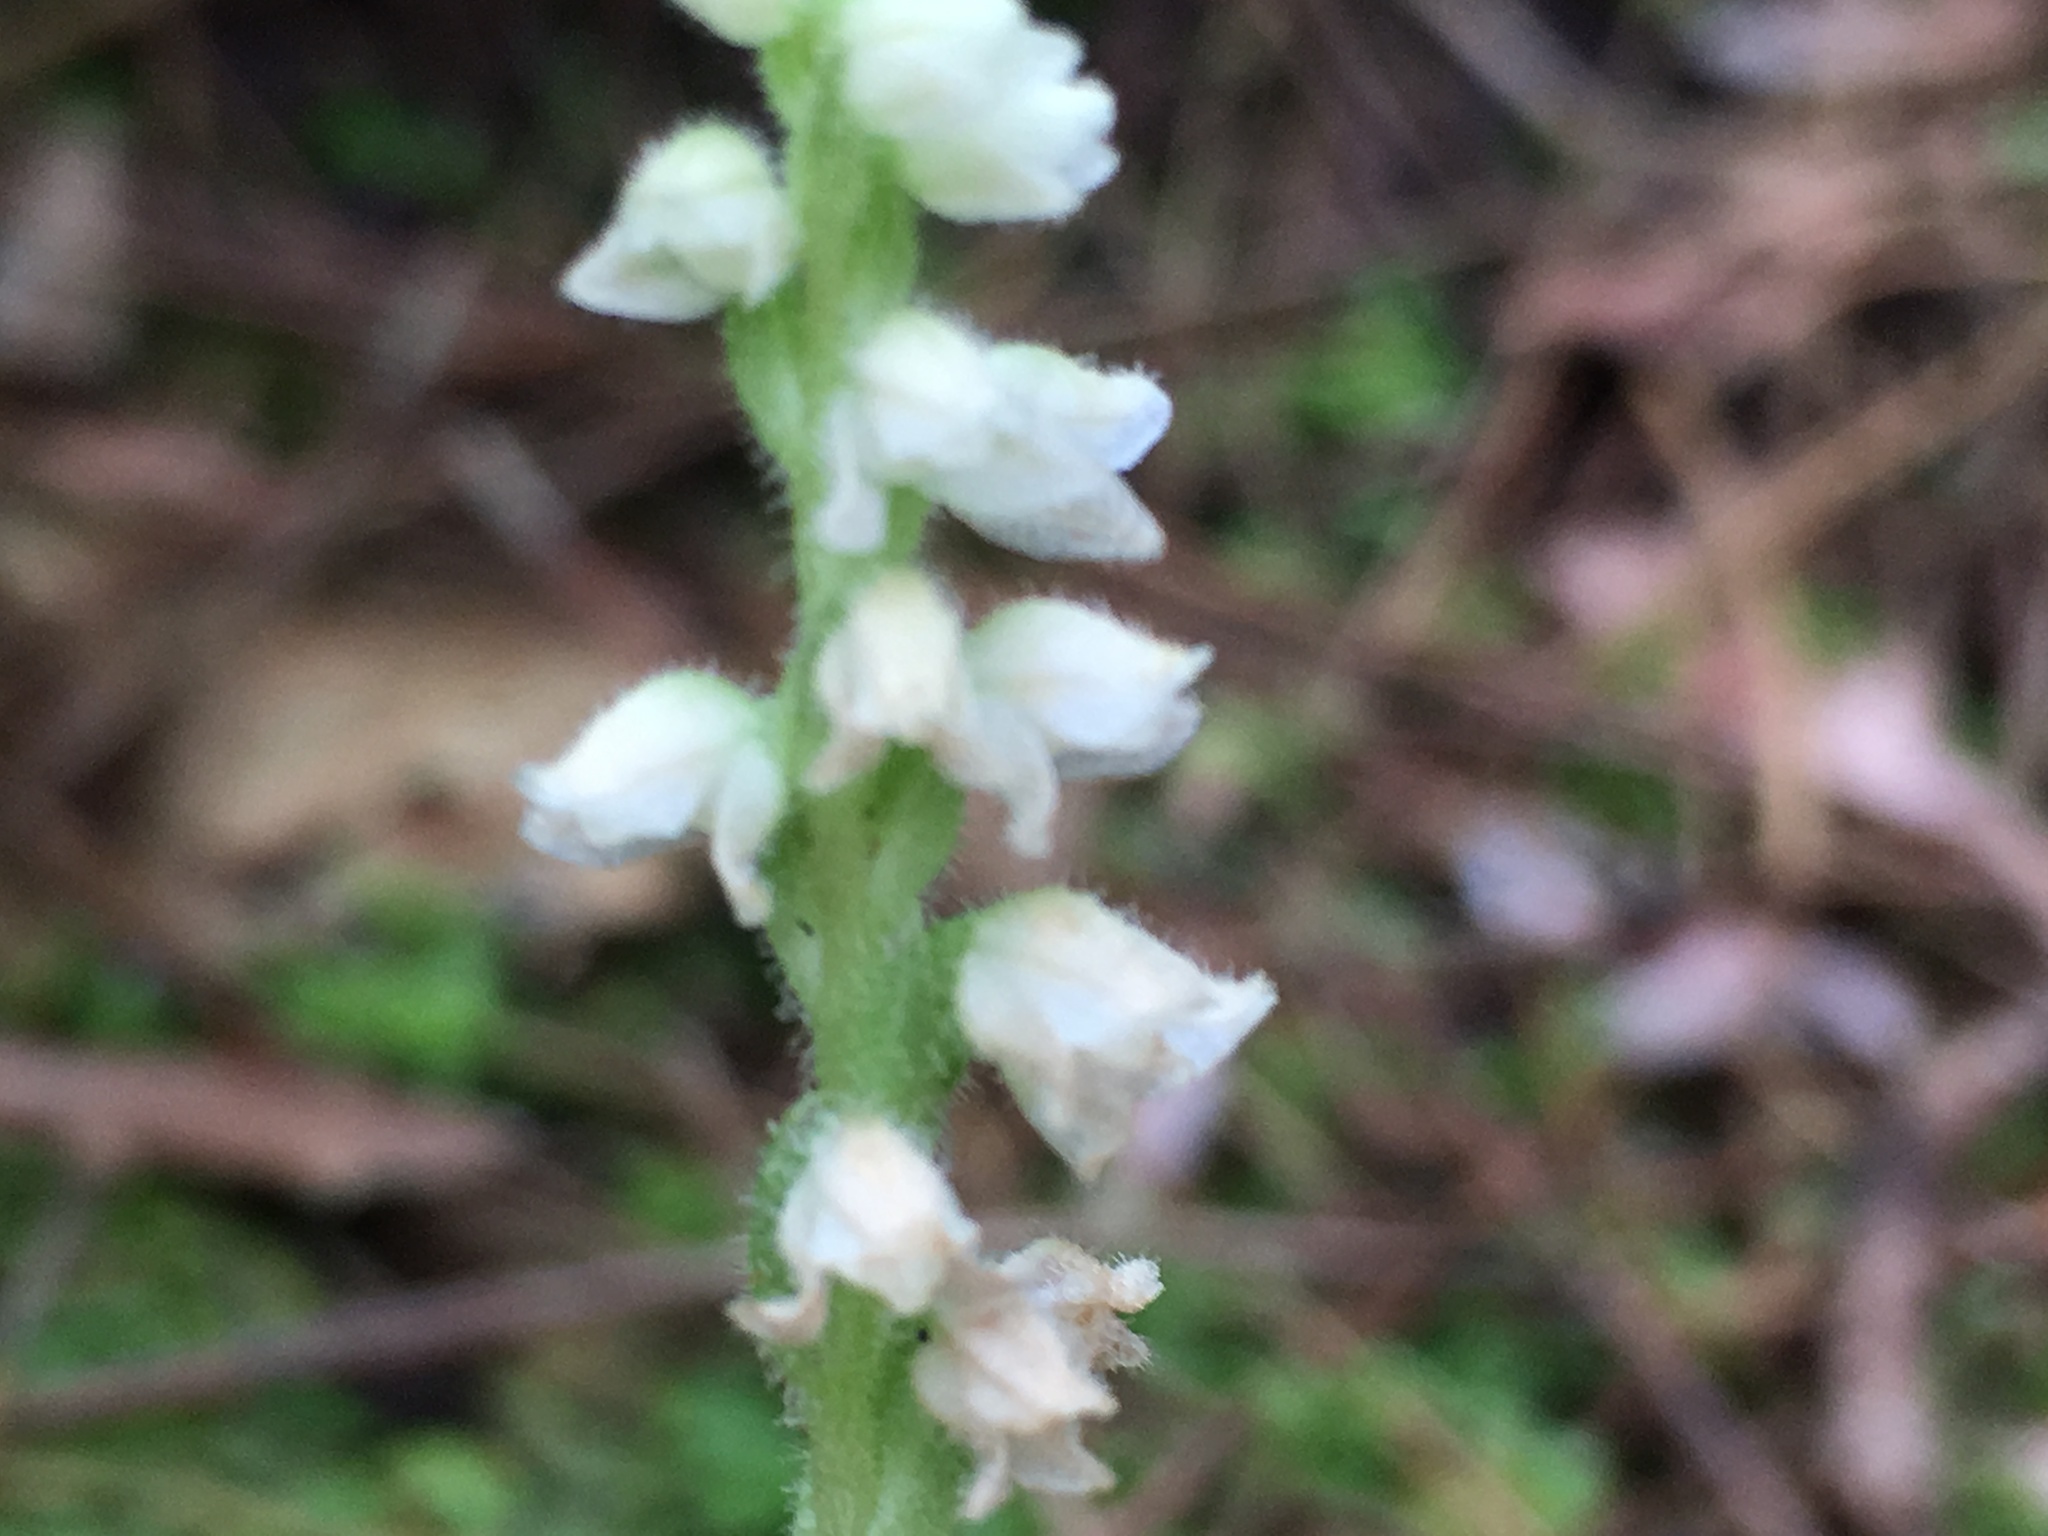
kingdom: Plantae
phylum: Tracheophyta
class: Liliopsida
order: Asparagales
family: Orchidaceae
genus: Goodyera
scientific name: Goodyera tesselata
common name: Checkered rattlesnake-plantain
